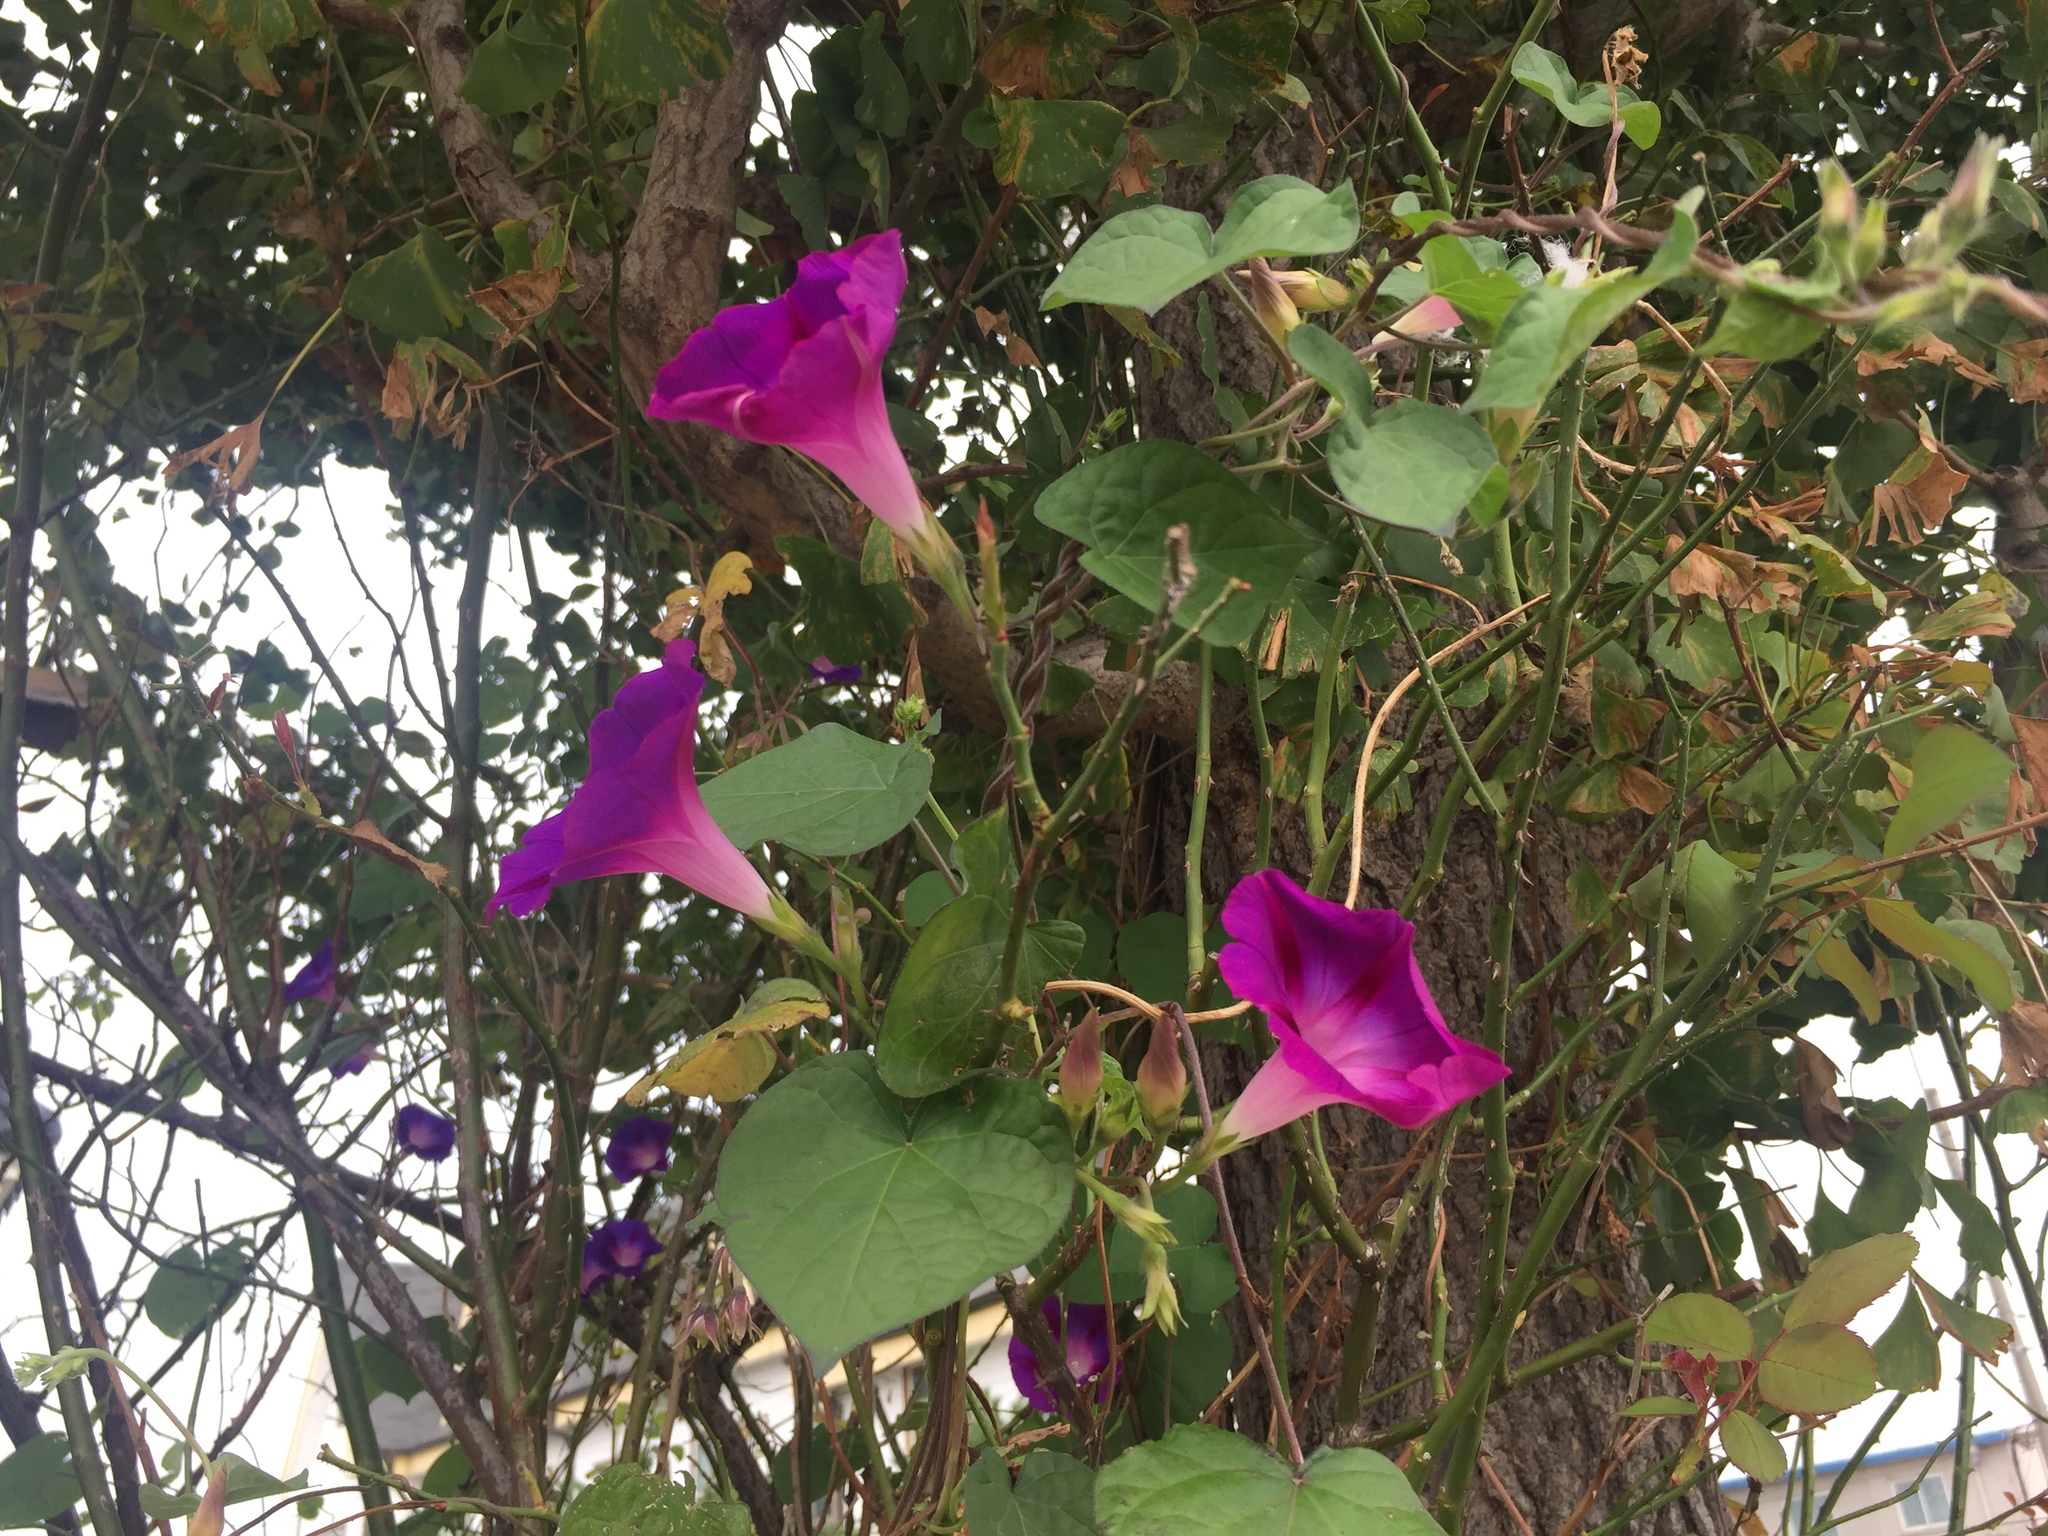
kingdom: Plantae
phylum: Tracheophyta
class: Magnoliopsida
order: Solanales
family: Convolvulaceae
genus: Ipomoea
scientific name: Ipomoea purpurea
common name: Common morning-glory
